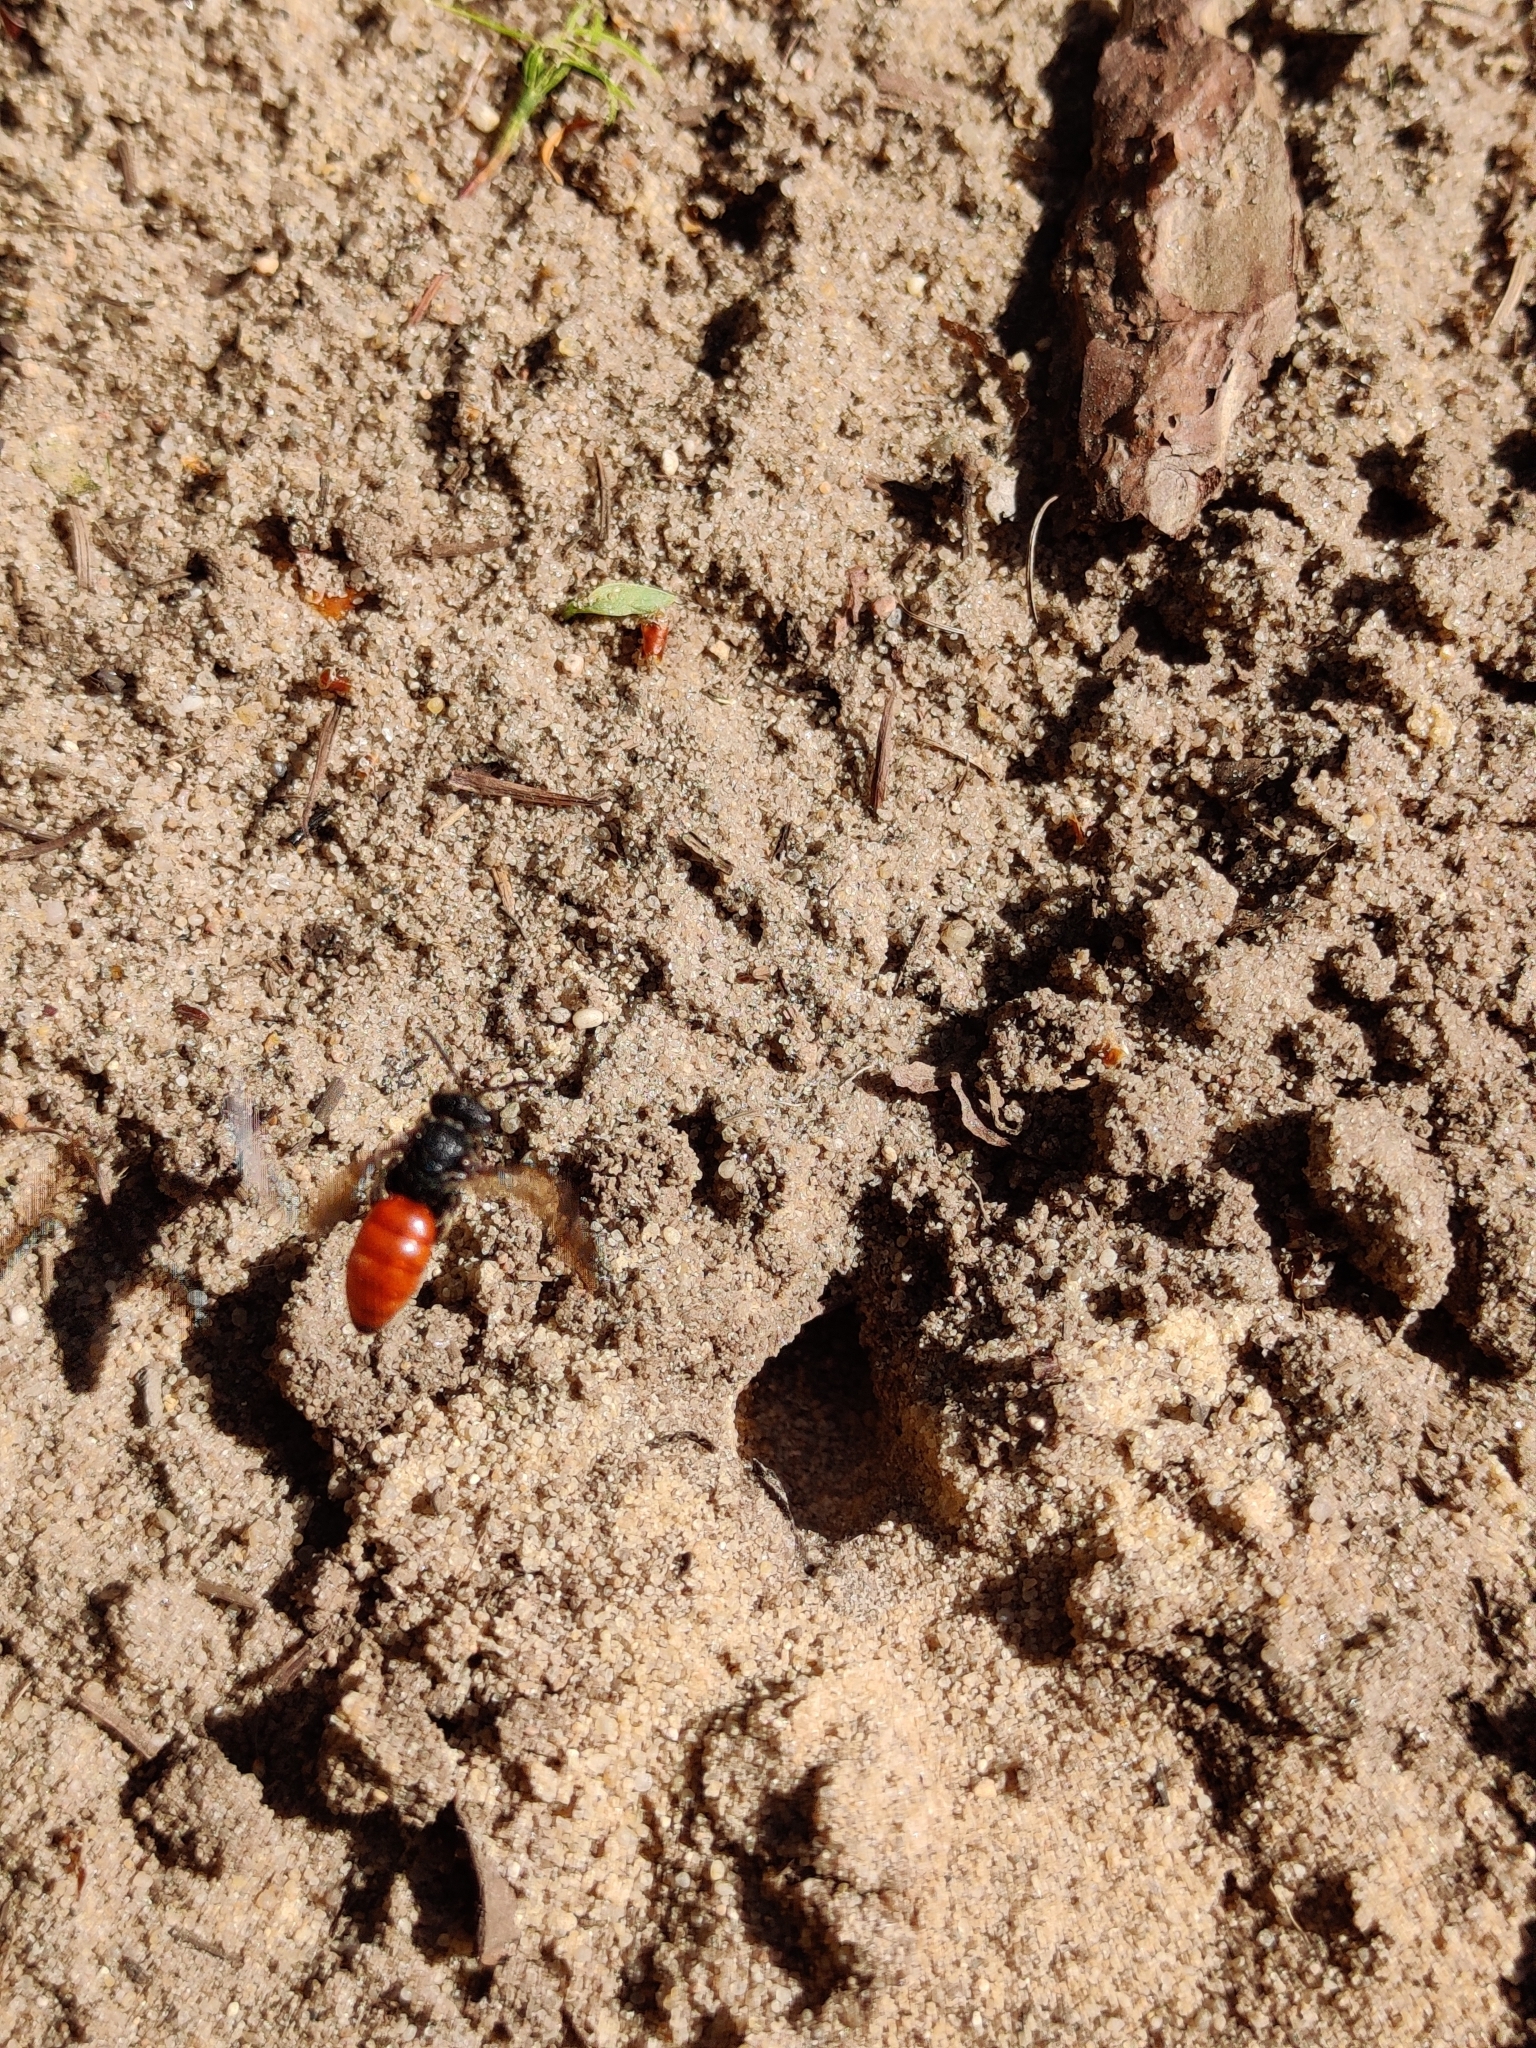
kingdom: Animalia
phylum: Arthropoda
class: Insecta
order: Hymenoptera
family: Halictidae
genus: Sphecodes
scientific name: Sphecodes albilabris
